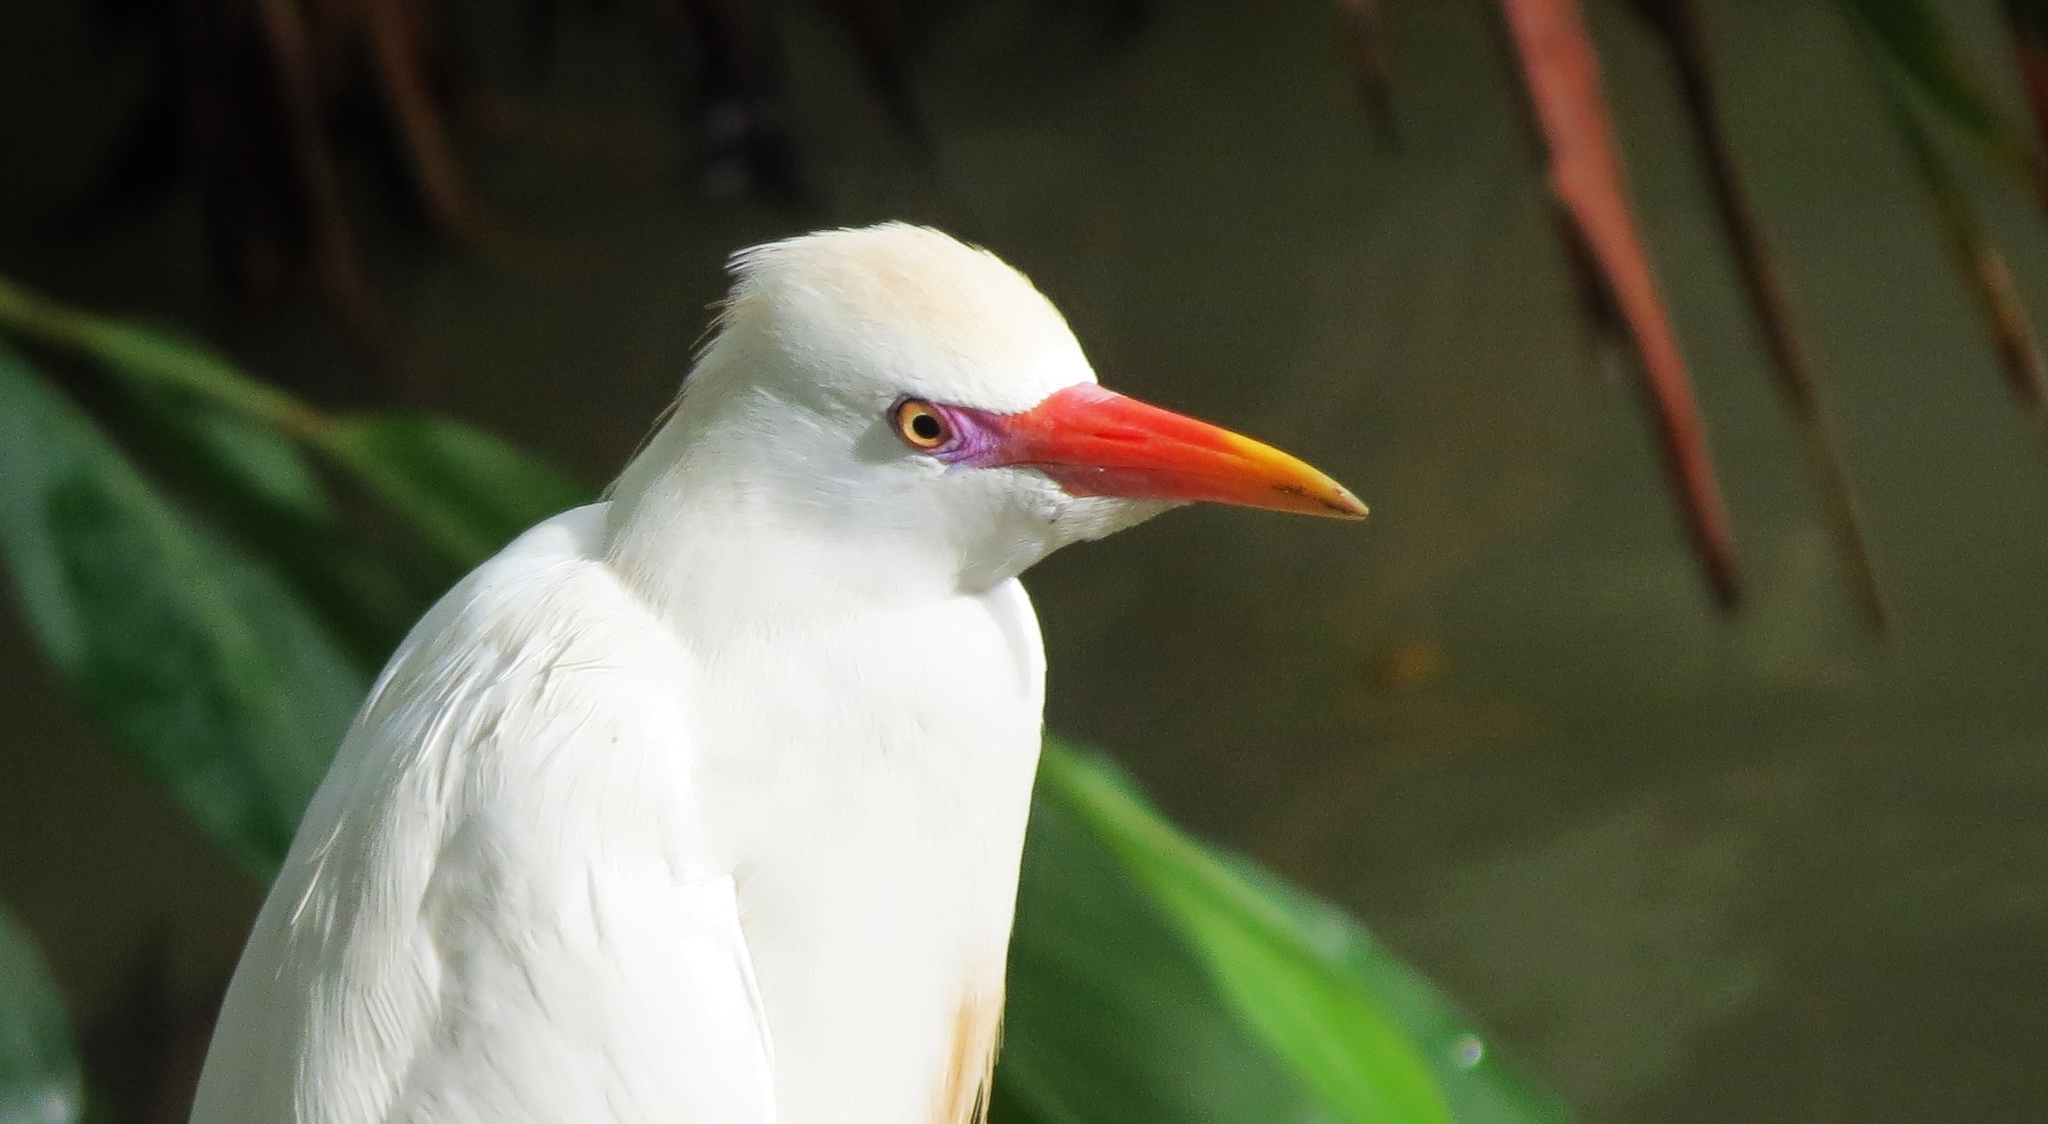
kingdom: Animalia
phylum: Chordata
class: Aves
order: Pelecaniformes
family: Ardeidae
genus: Bubulcus
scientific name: Bubulcus ibis
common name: Cattle egret
